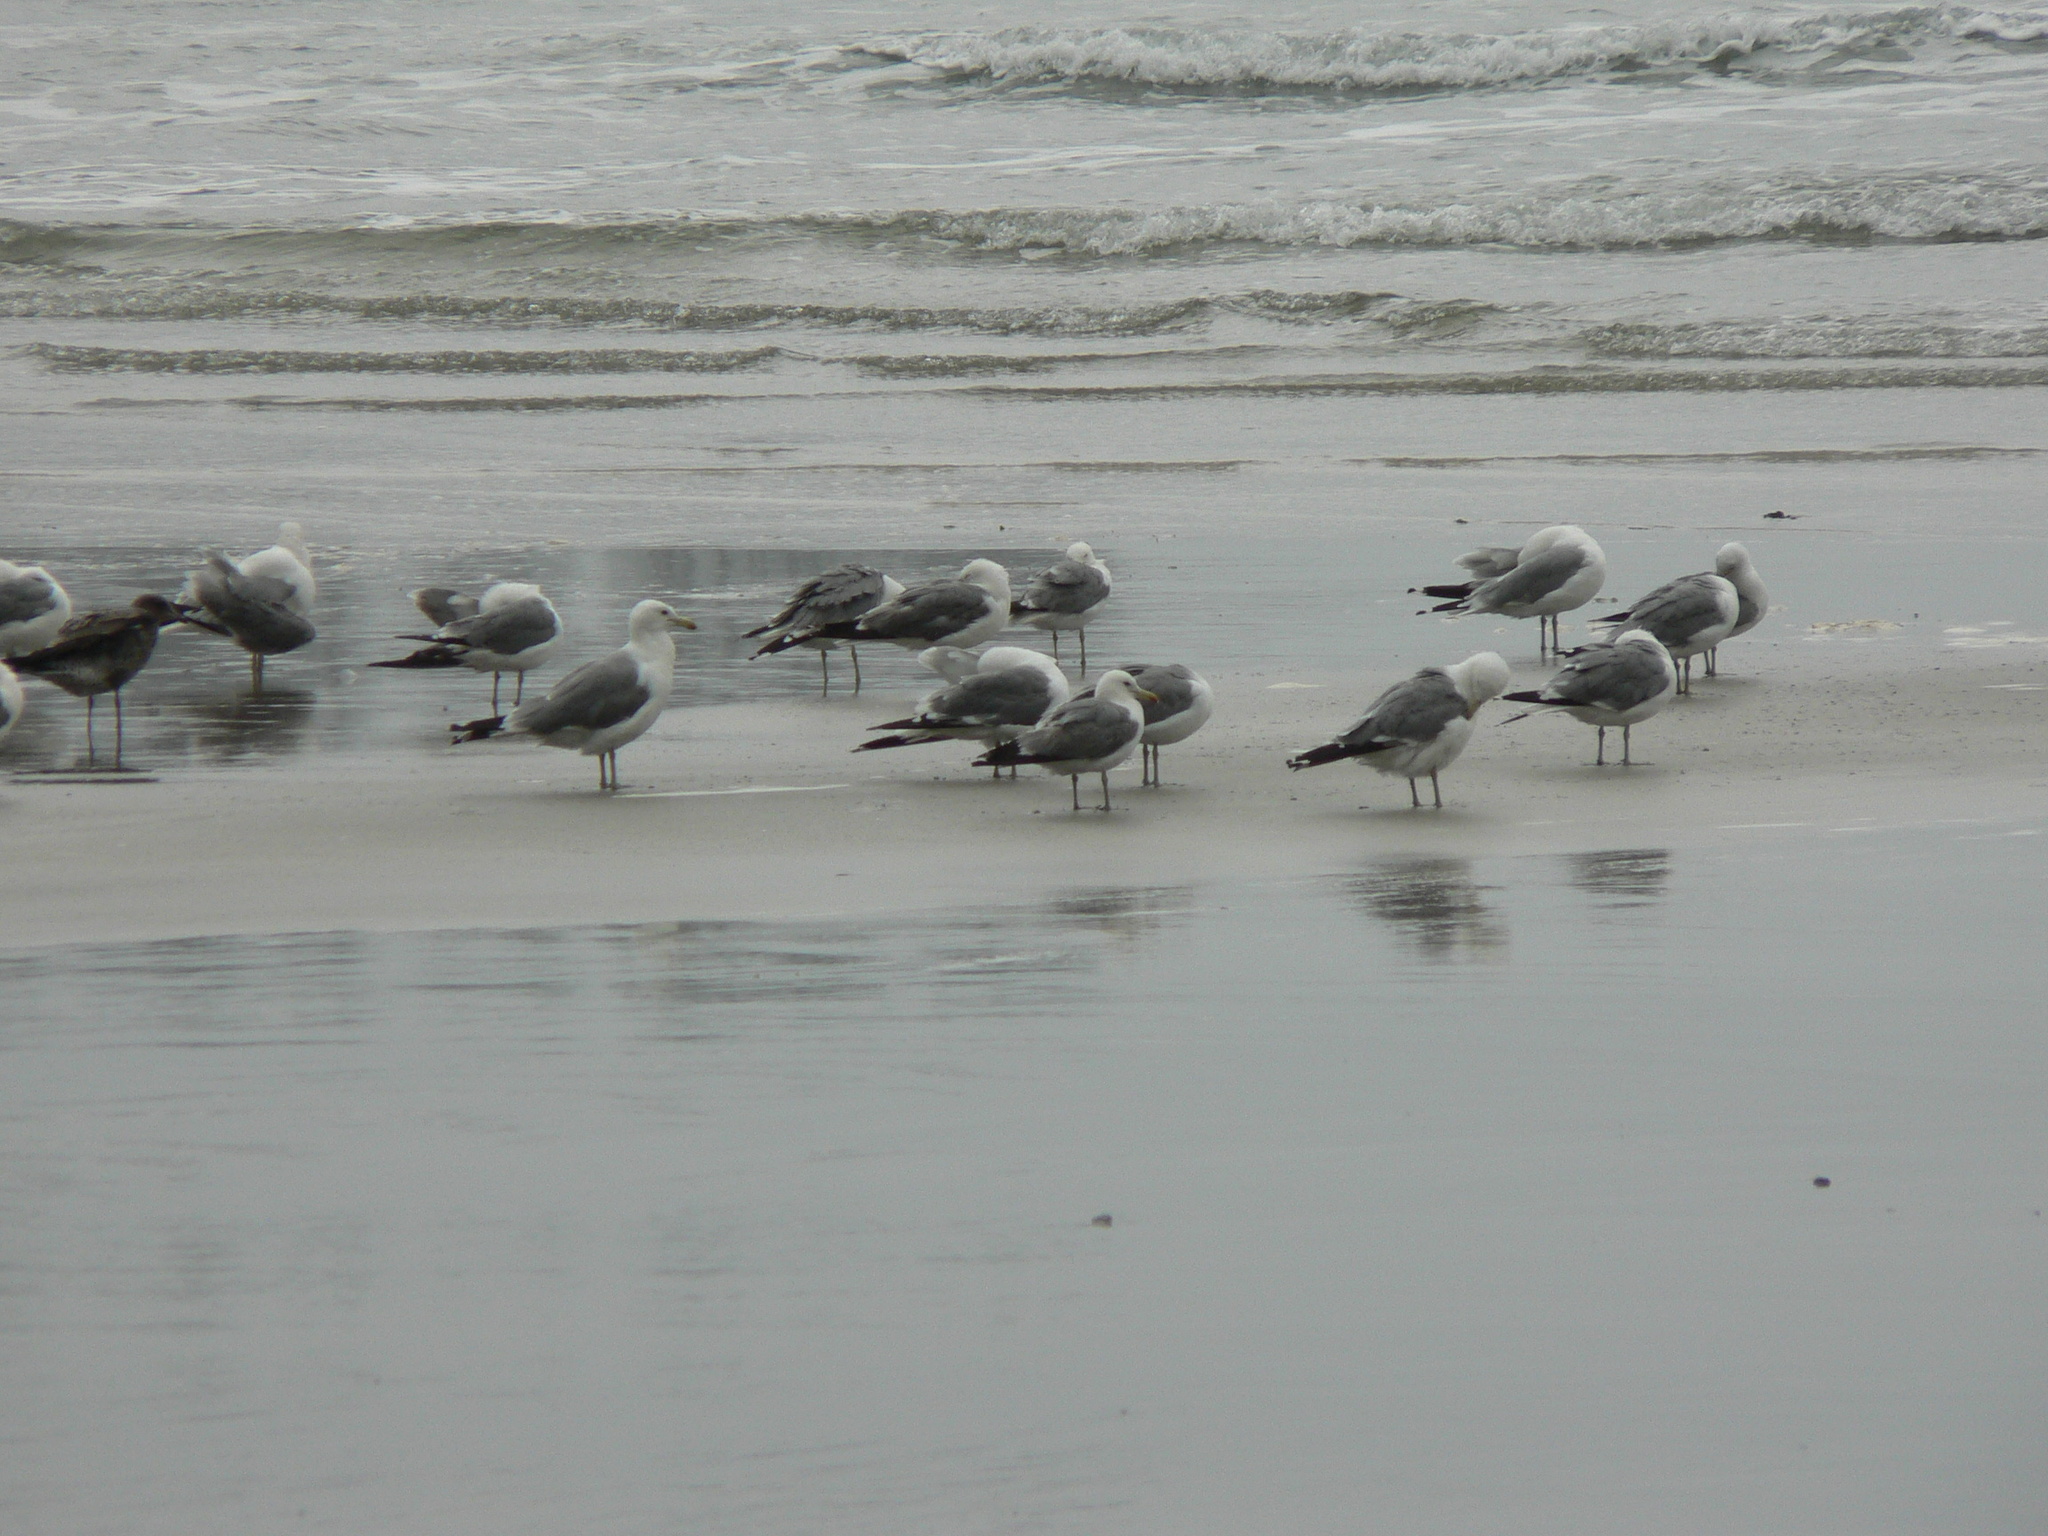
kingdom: Animalia
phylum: Chordata
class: Aves
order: Charadriiformes
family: Laridae
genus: Larus
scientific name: Larus californicus
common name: California gull
